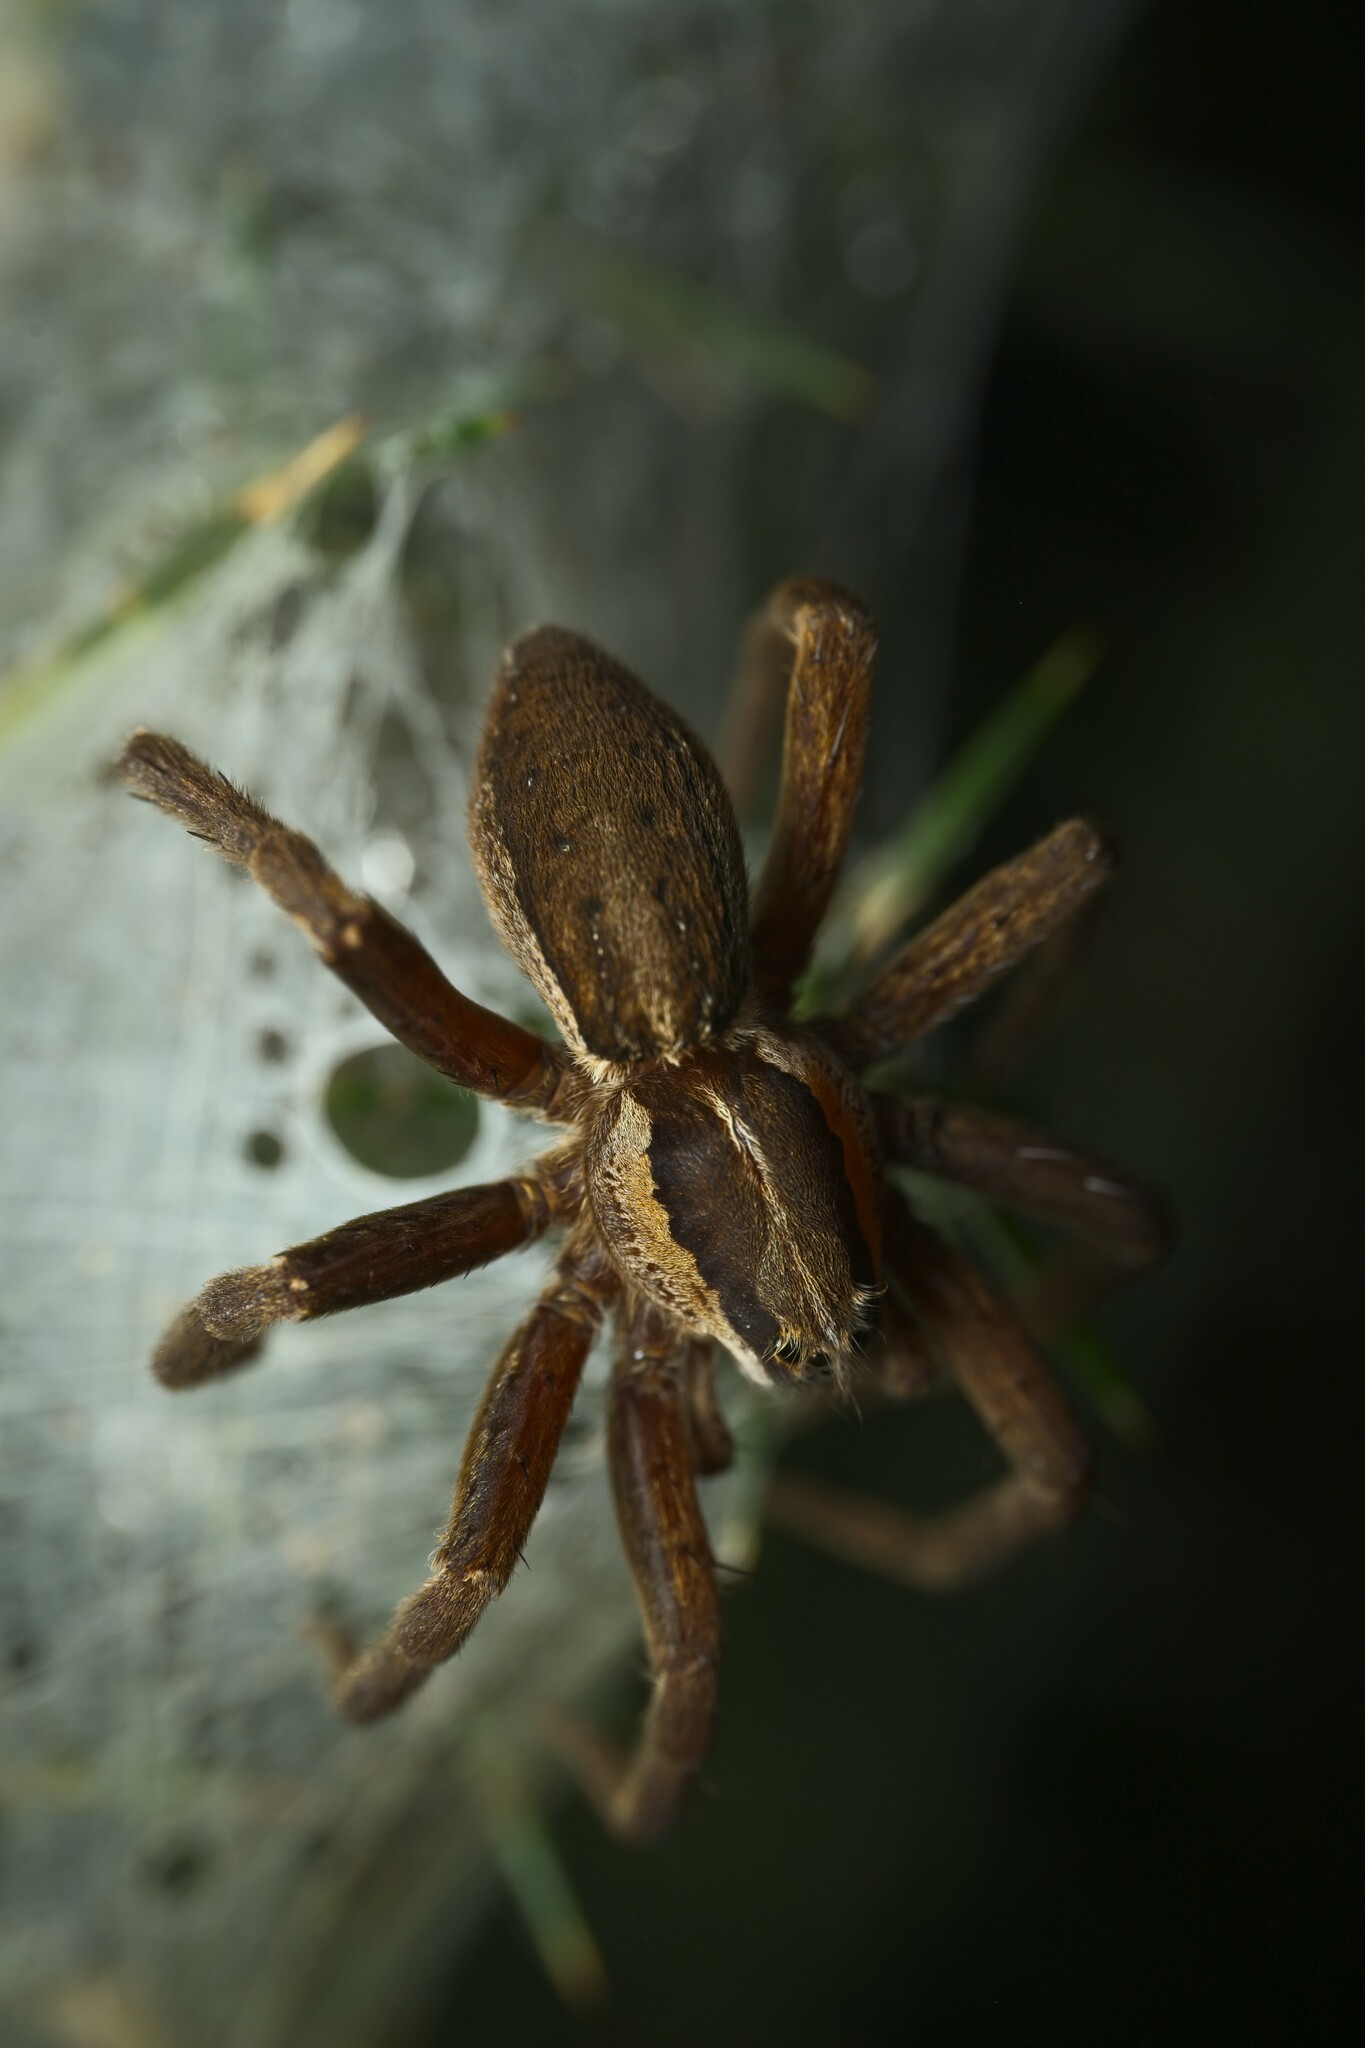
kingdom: Animalia
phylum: Arthropoda
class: Arachnida
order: Araneae
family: Pisauridae
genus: Dolomedes
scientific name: Dolomedes minor
